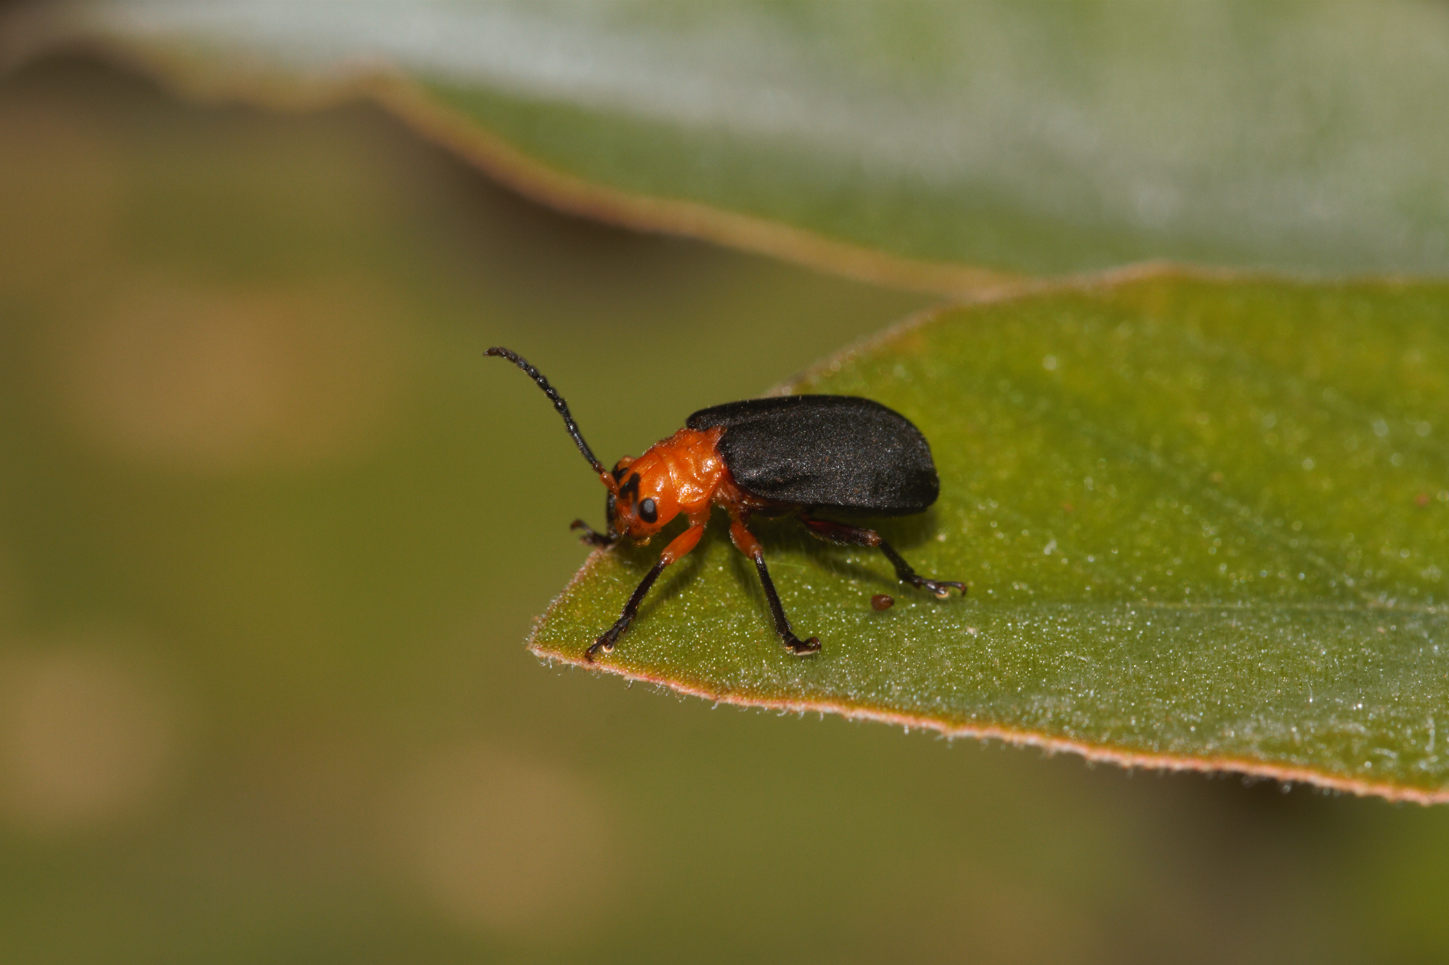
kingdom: Animalia
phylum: Arthropoda
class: Insecta
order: Coleoptera
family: Chrysomelidae
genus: Dircema
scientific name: Dircema ruficrus
